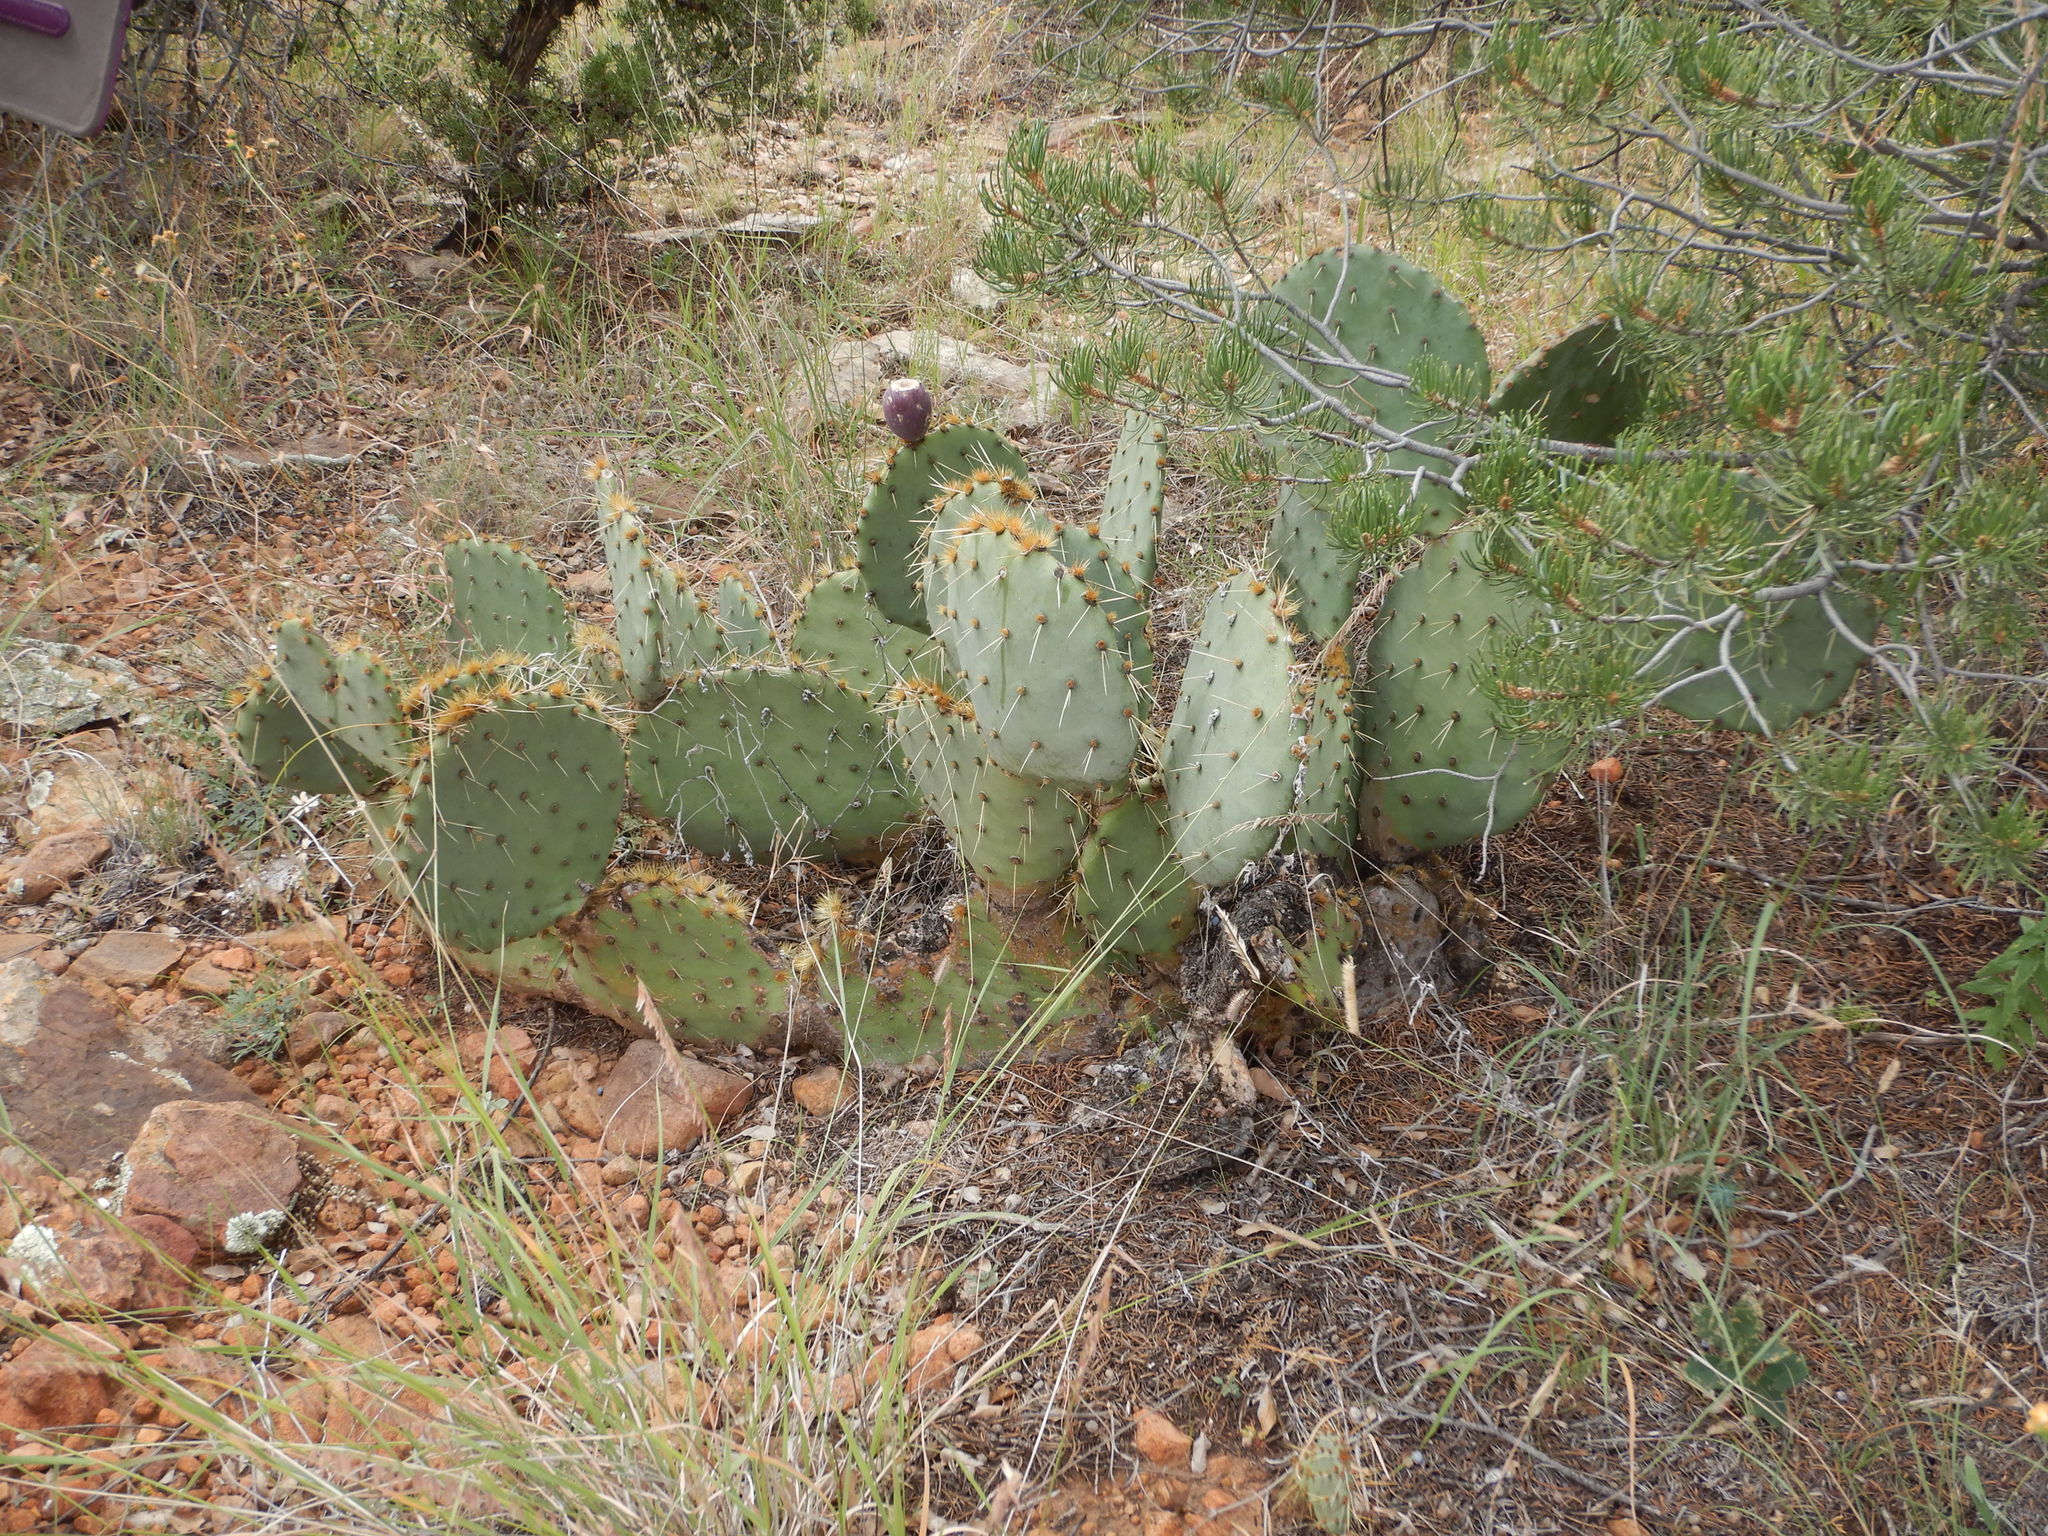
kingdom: Plantae
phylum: Tracheophyta
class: Magnoliopsida
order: Caryophyllales
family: Cactaceae
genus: Opuntia
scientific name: Opuntia phaeacantha
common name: New mexico prickly-pear
